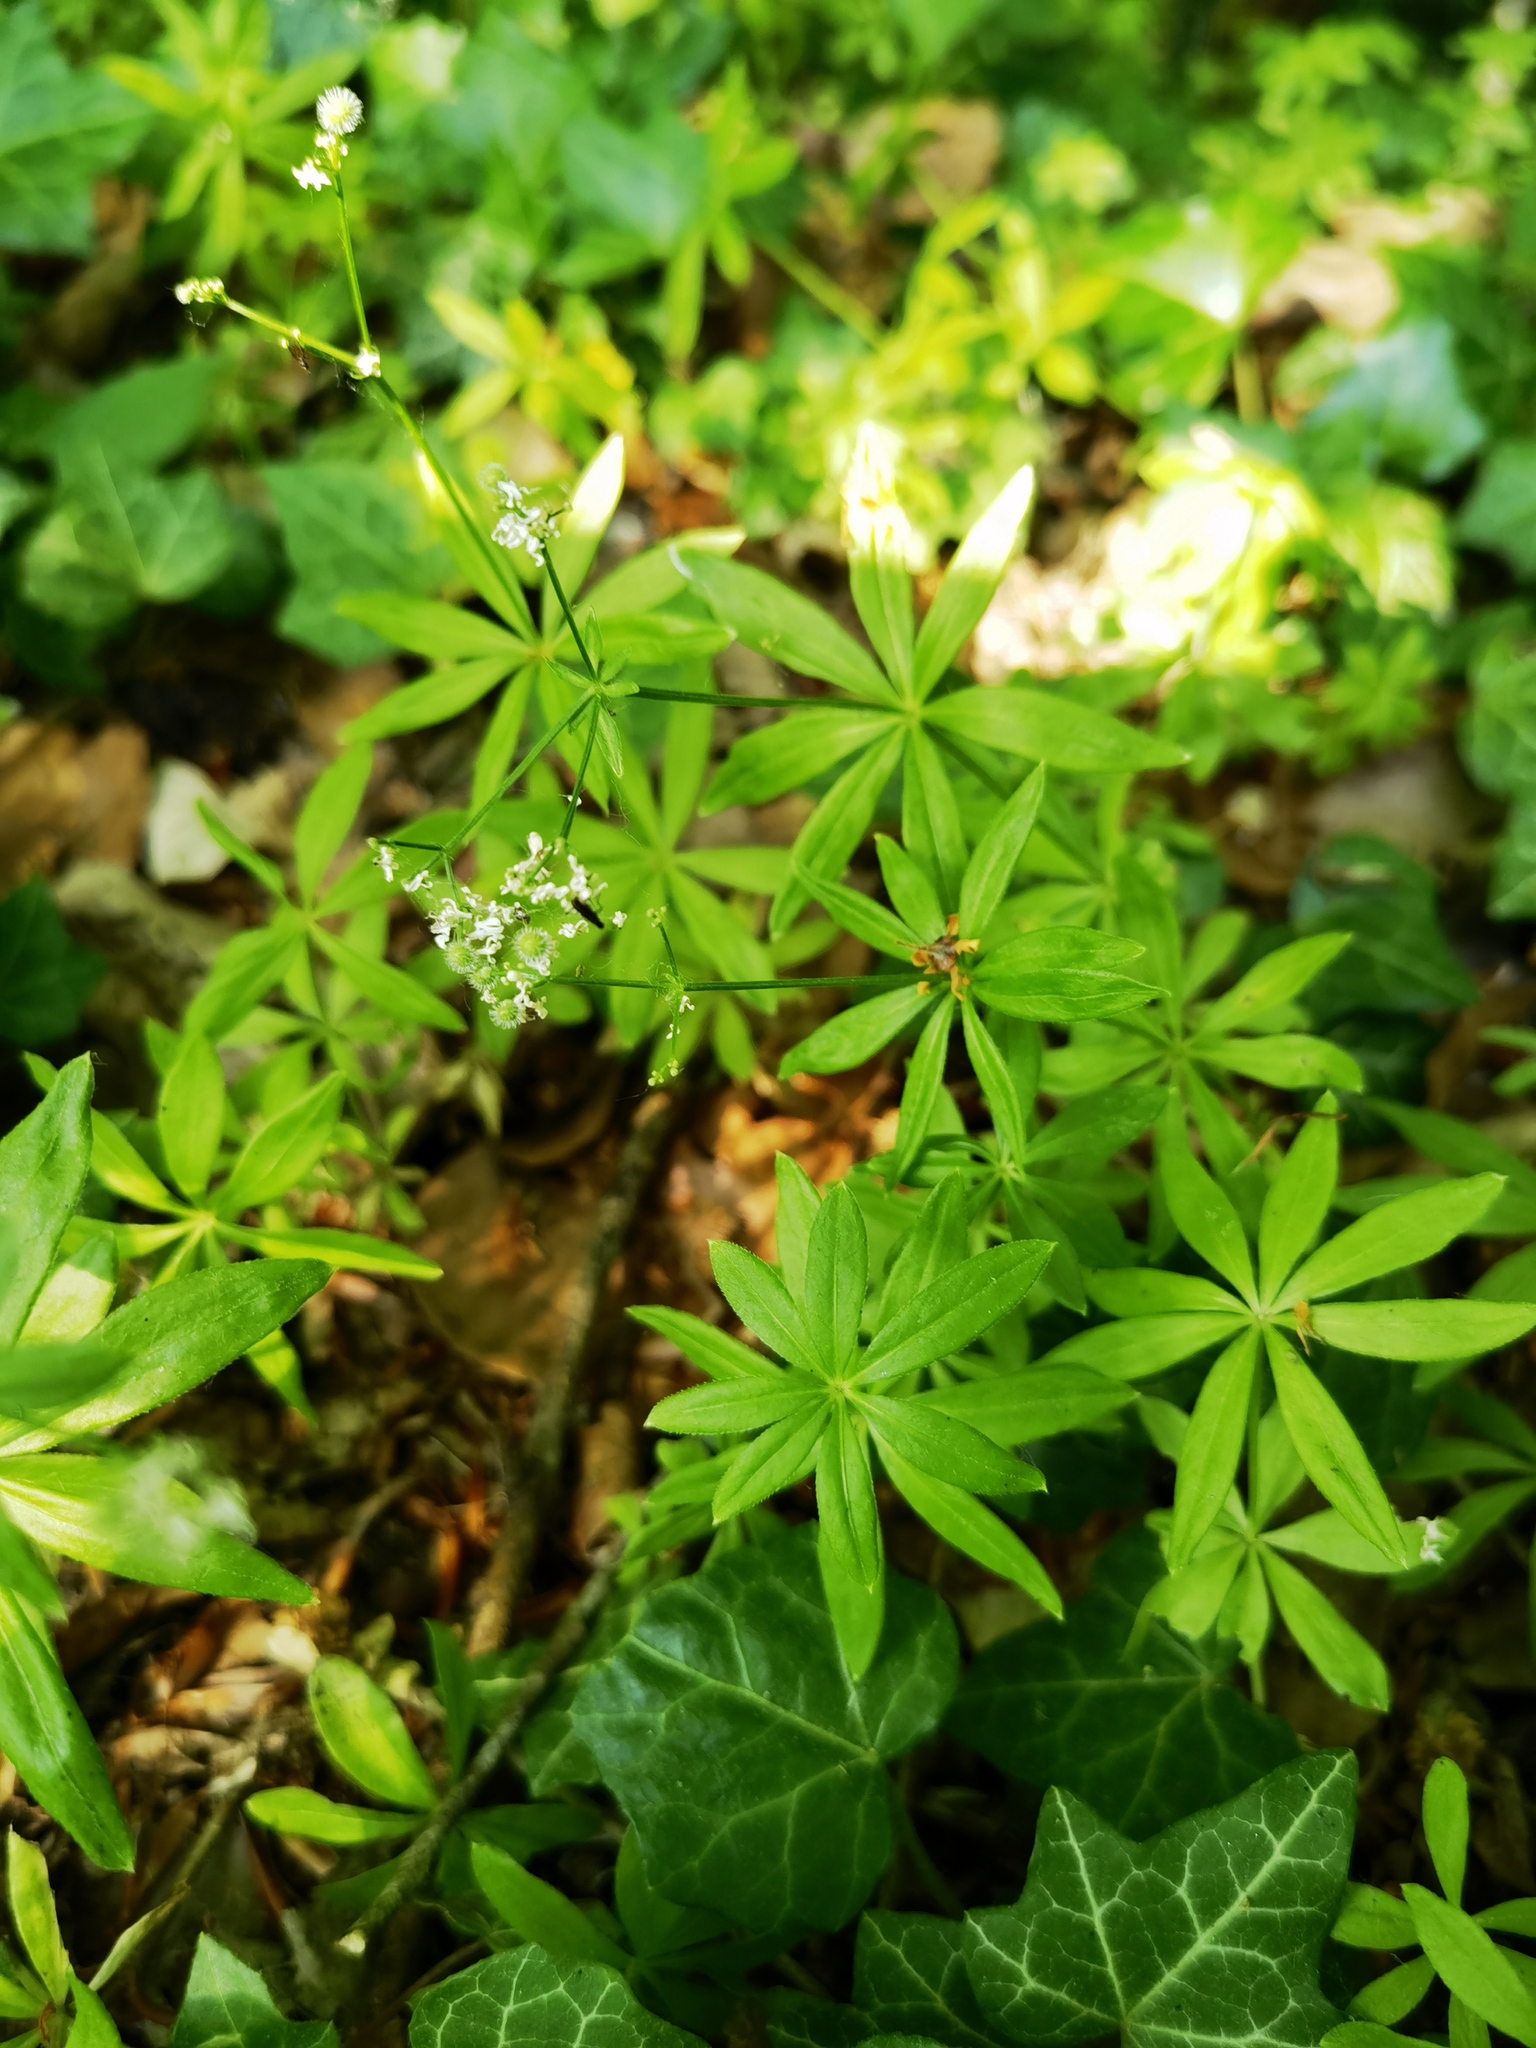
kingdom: Plantae
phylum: Tracheophyta
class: Magnoliopsida
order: Gentianales
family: Rubiaceae
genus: Galium
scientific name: Galium odoratum
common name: Sweet woodruff
